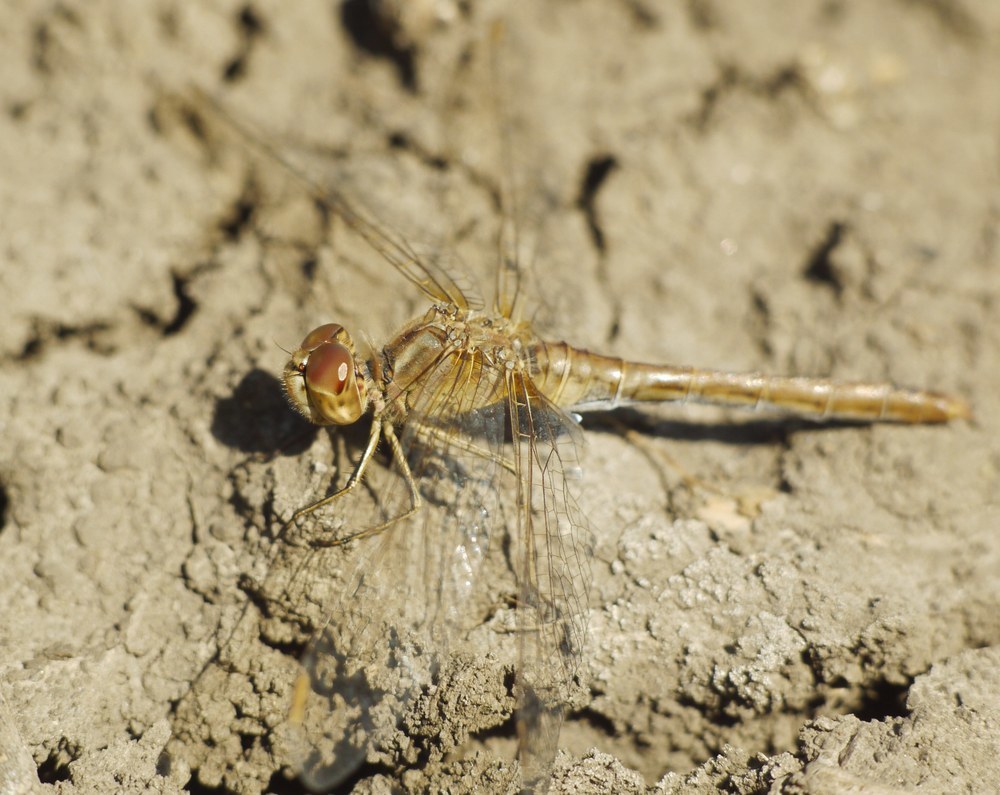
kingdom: Animalia
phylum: Arthropoda
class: Insecta
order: Odonata
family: Libellulidae
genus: Sympetrum
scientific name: Sympetrum meridionale
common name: Southern darter
